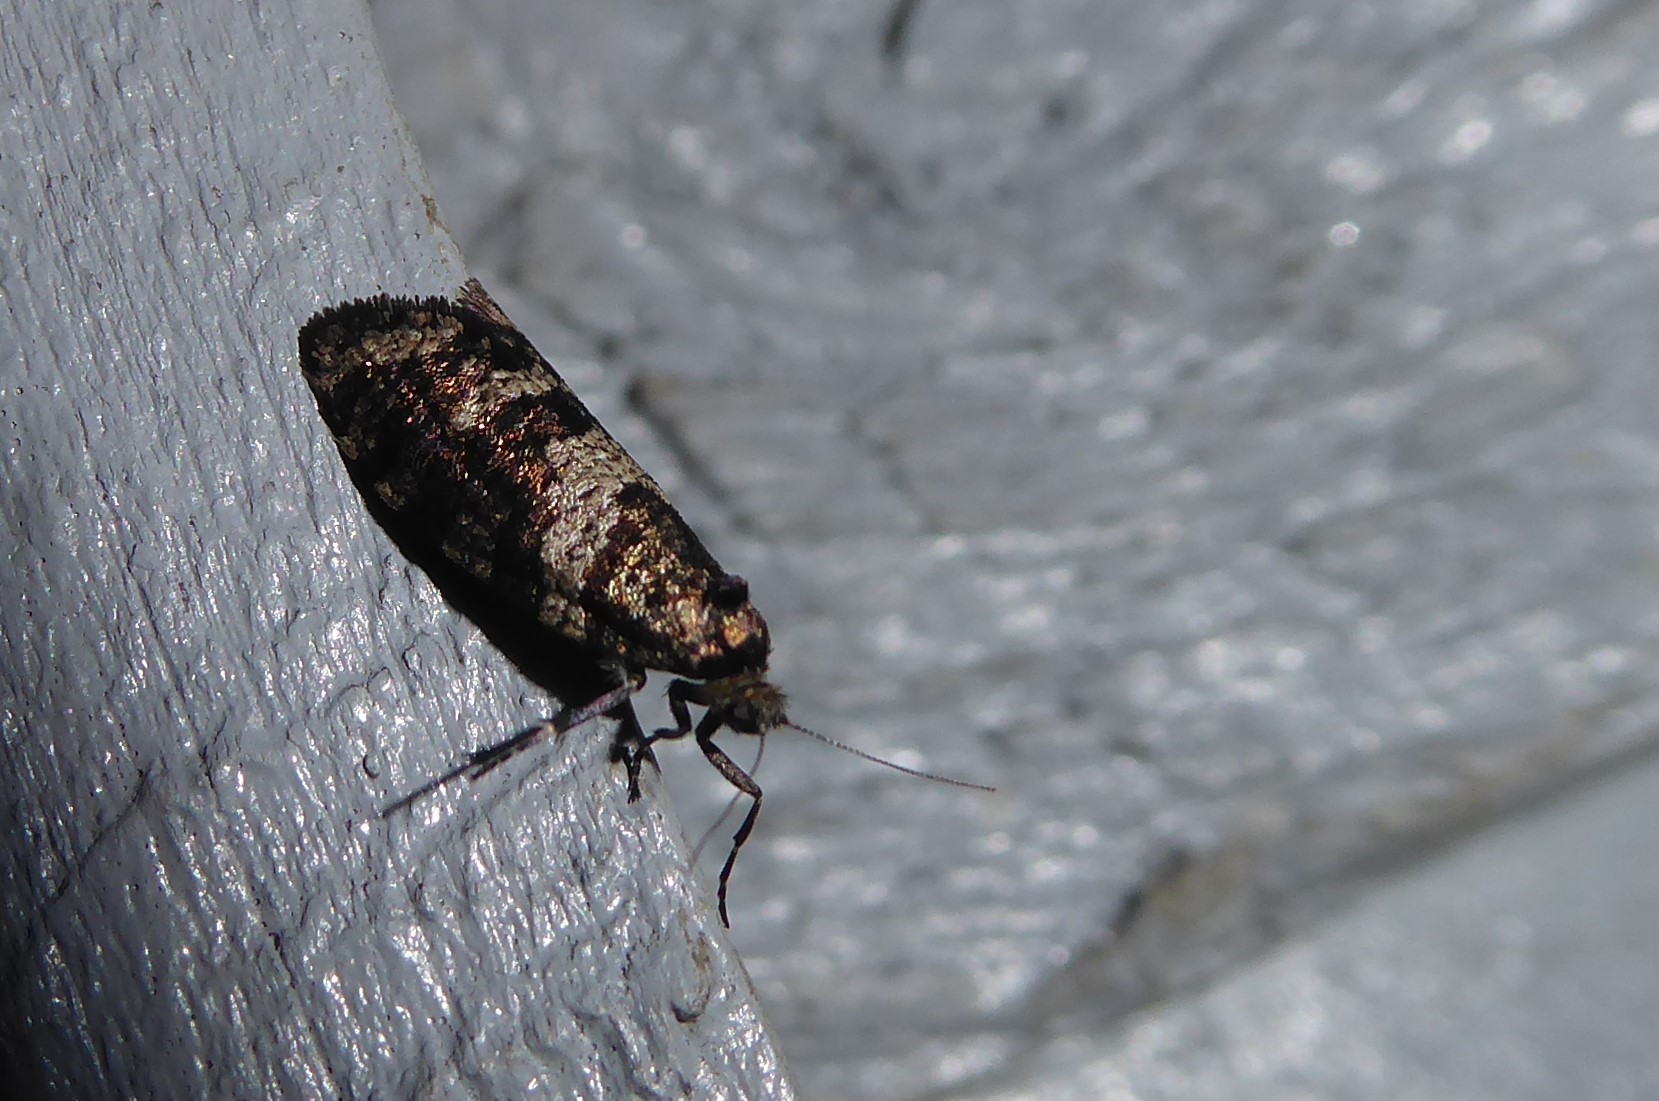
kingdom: Animalia
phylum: Arthropoda
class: Insecta
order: Lepidoptera
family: Psychidae
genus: Lepidoscia
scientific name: Lepidoscia heliochares
